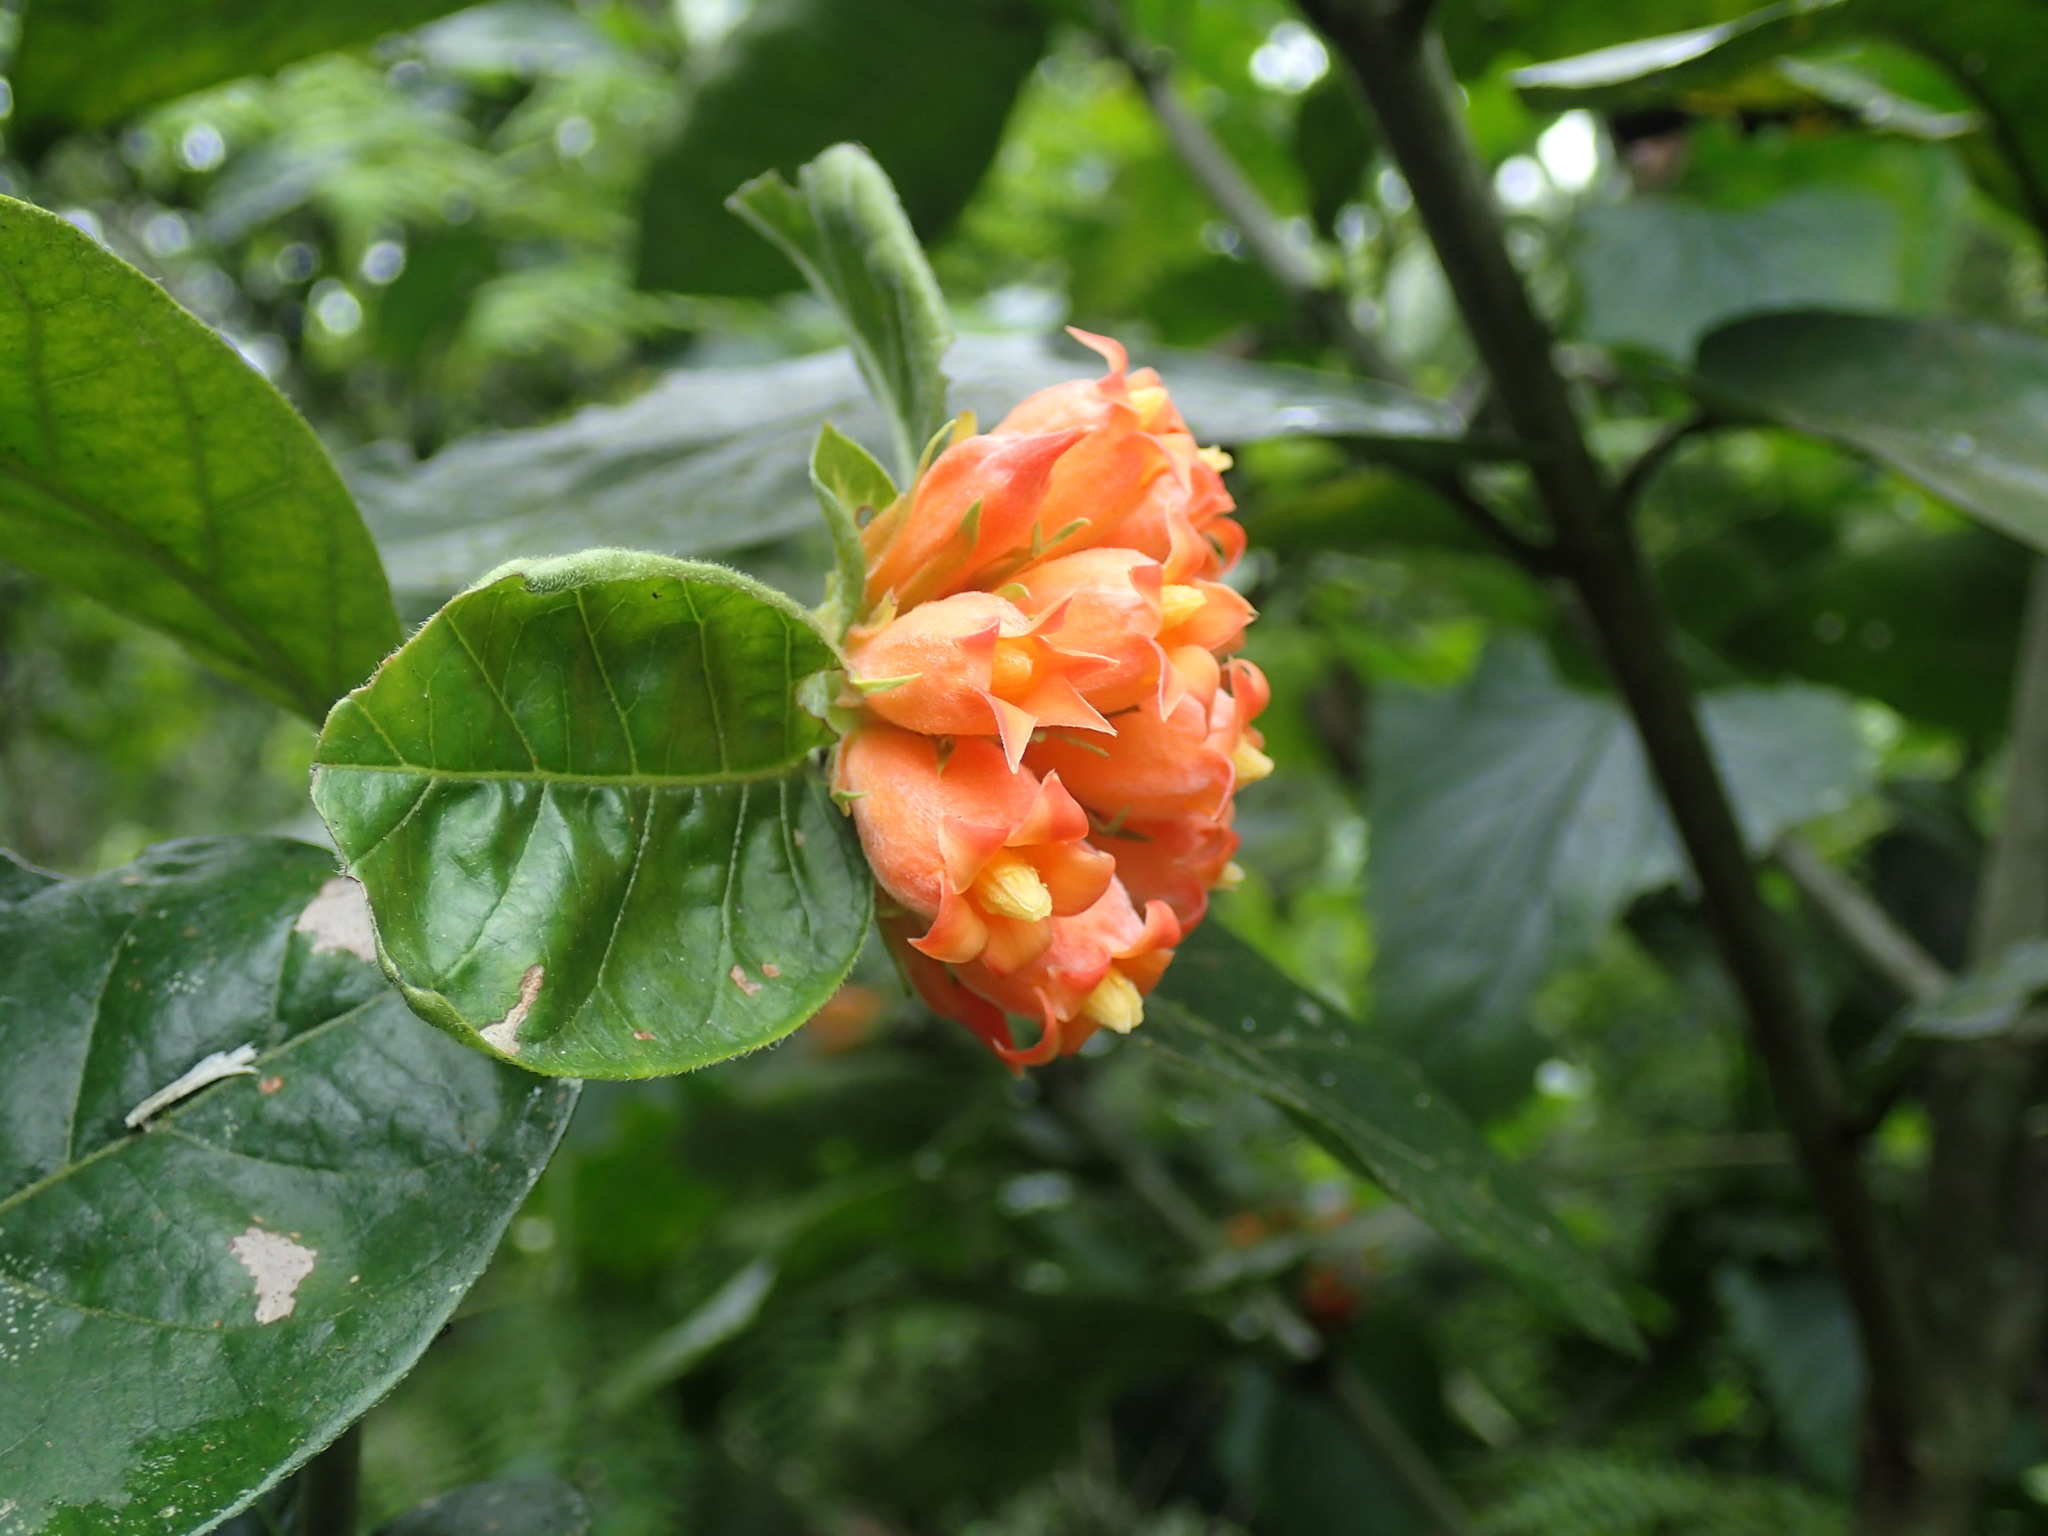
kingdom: Plantae
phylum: Tracheophyta
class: Magnoliopsida
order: Gentianales
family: Rubiaceae
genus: Burchellia
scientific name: Burchellia bubalina
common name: Wild pomegranate
